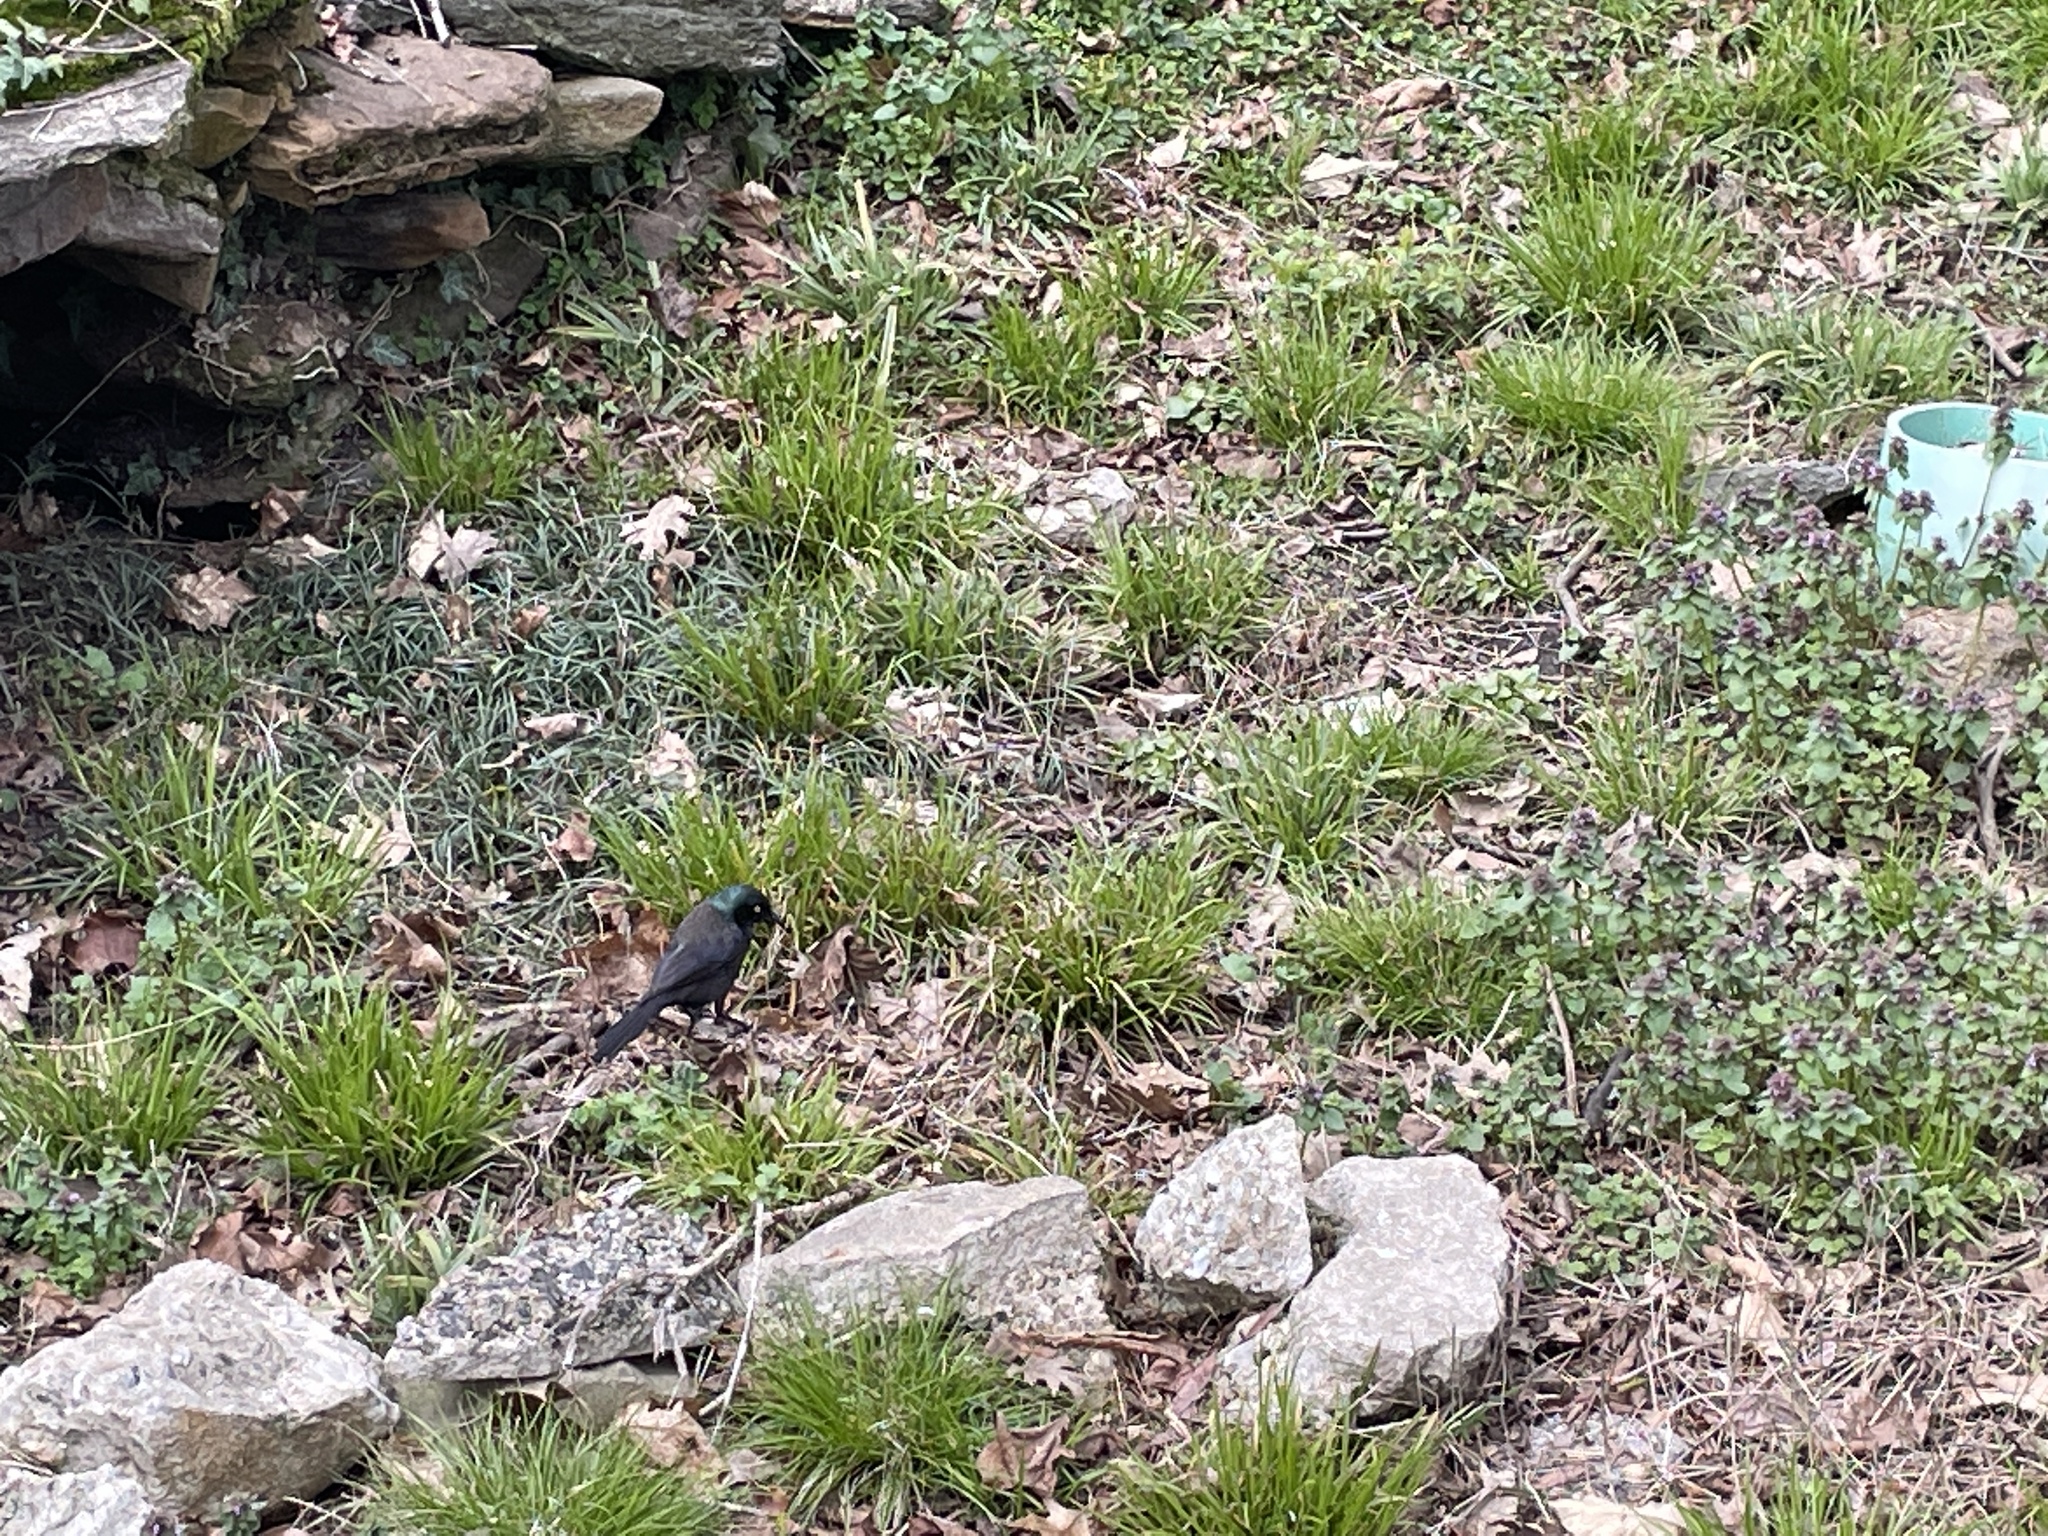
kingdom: Animalia
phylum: Chordata
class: Aves
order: Passeriformes
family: Icteridae
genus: Quiscalus
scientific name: Quiscalus quiscula
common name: Common grackle
